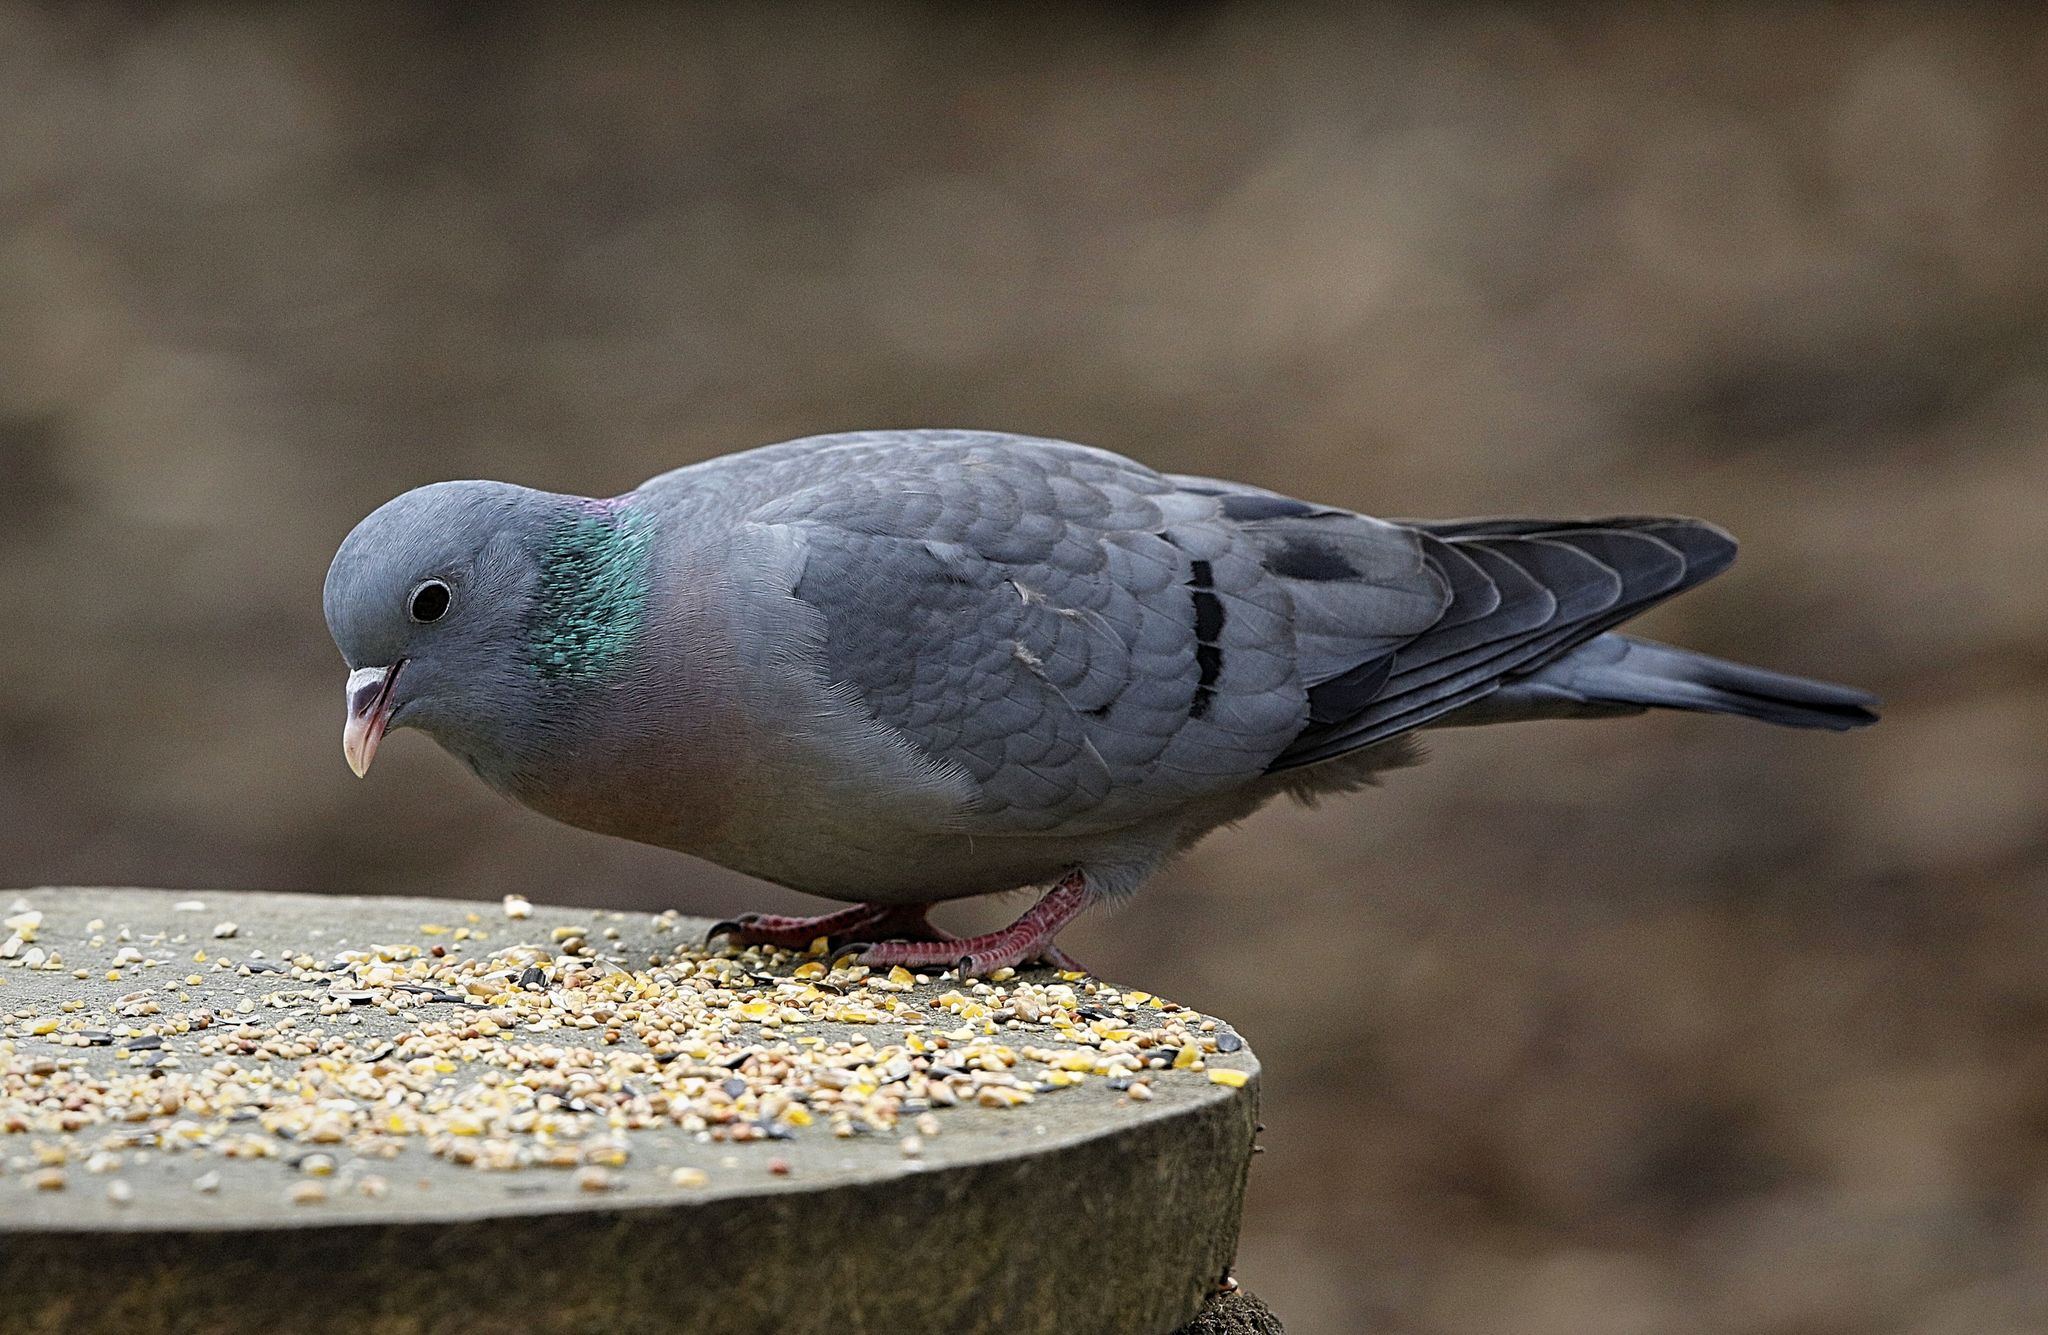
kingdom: Animalia
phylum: Chordata
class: Aves
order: Columbiformes
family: Columbidae
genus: Columba
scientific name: Columba oenas
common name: Stock dove
